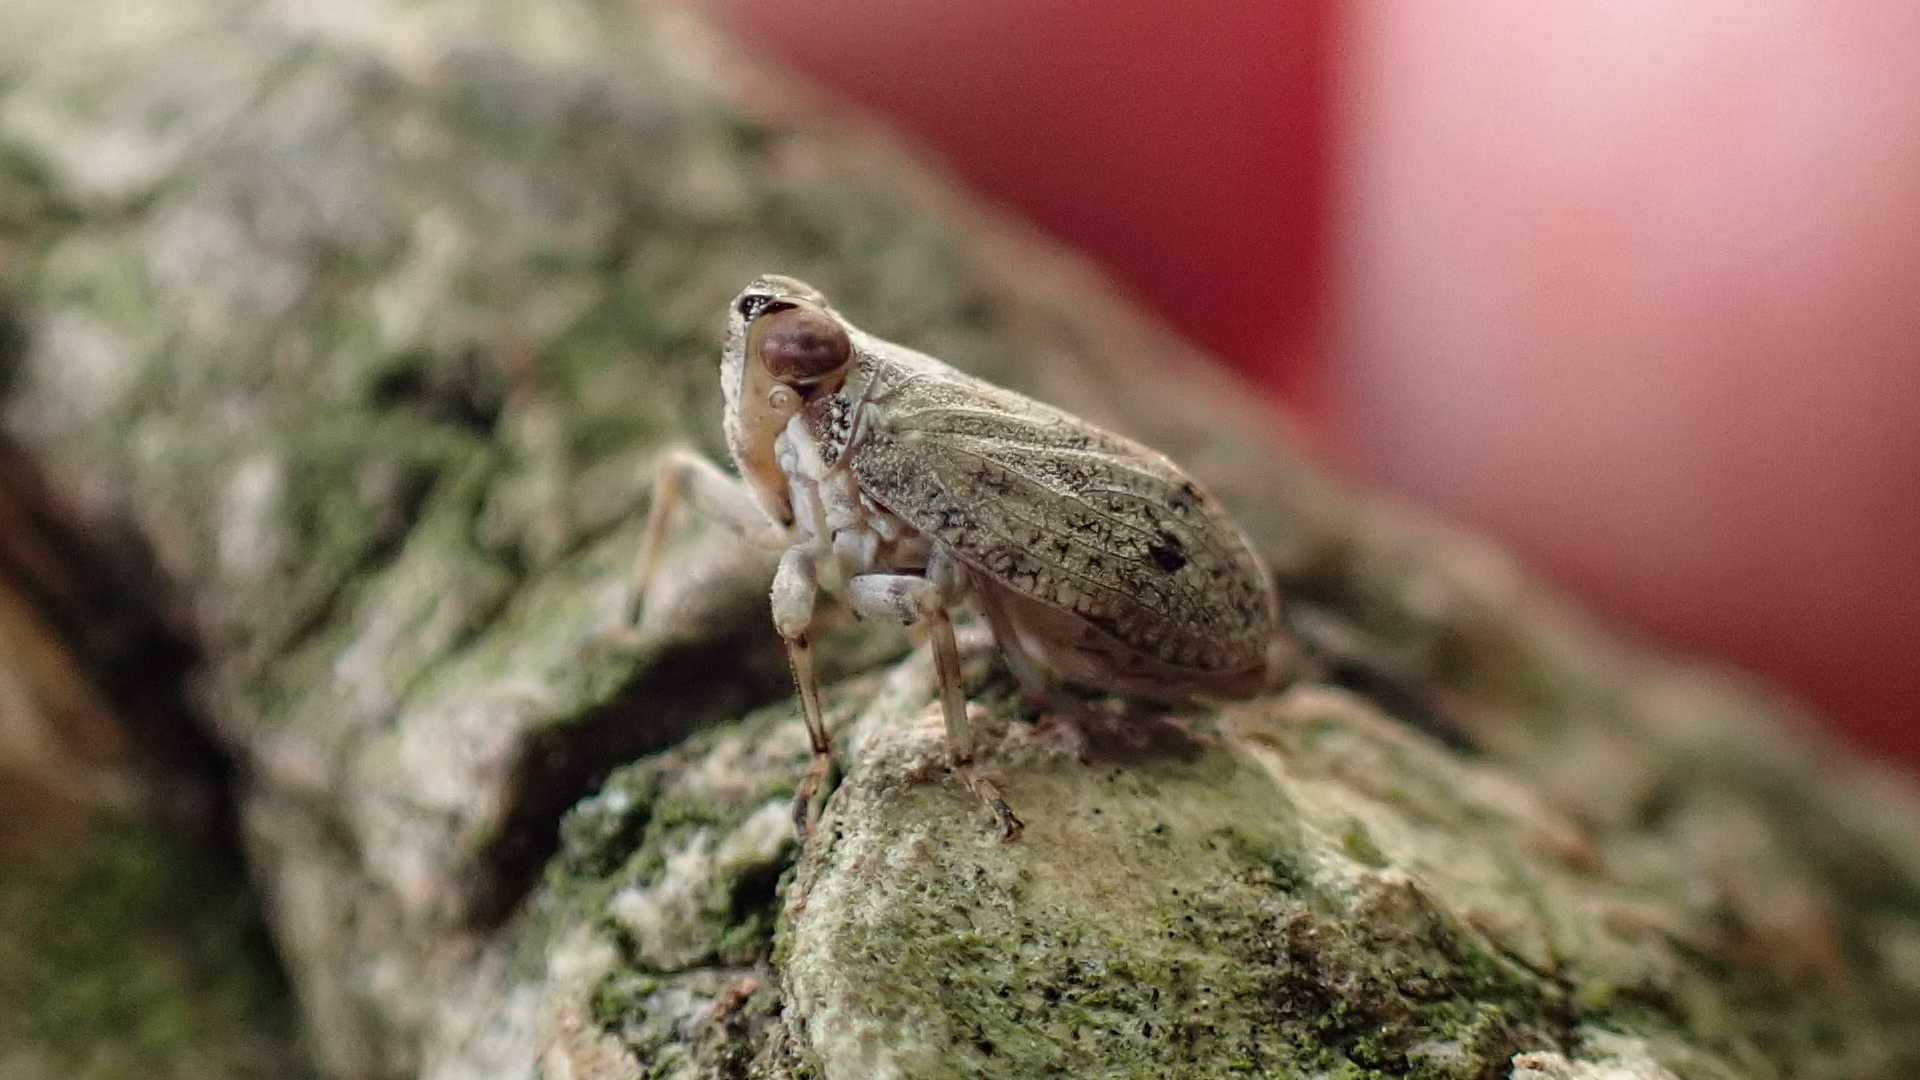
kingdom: Animalia
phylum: Arthropoda
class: Insecta
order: Hemiptera
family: Issidae
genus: Issus
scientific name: Issus coleoptratus
